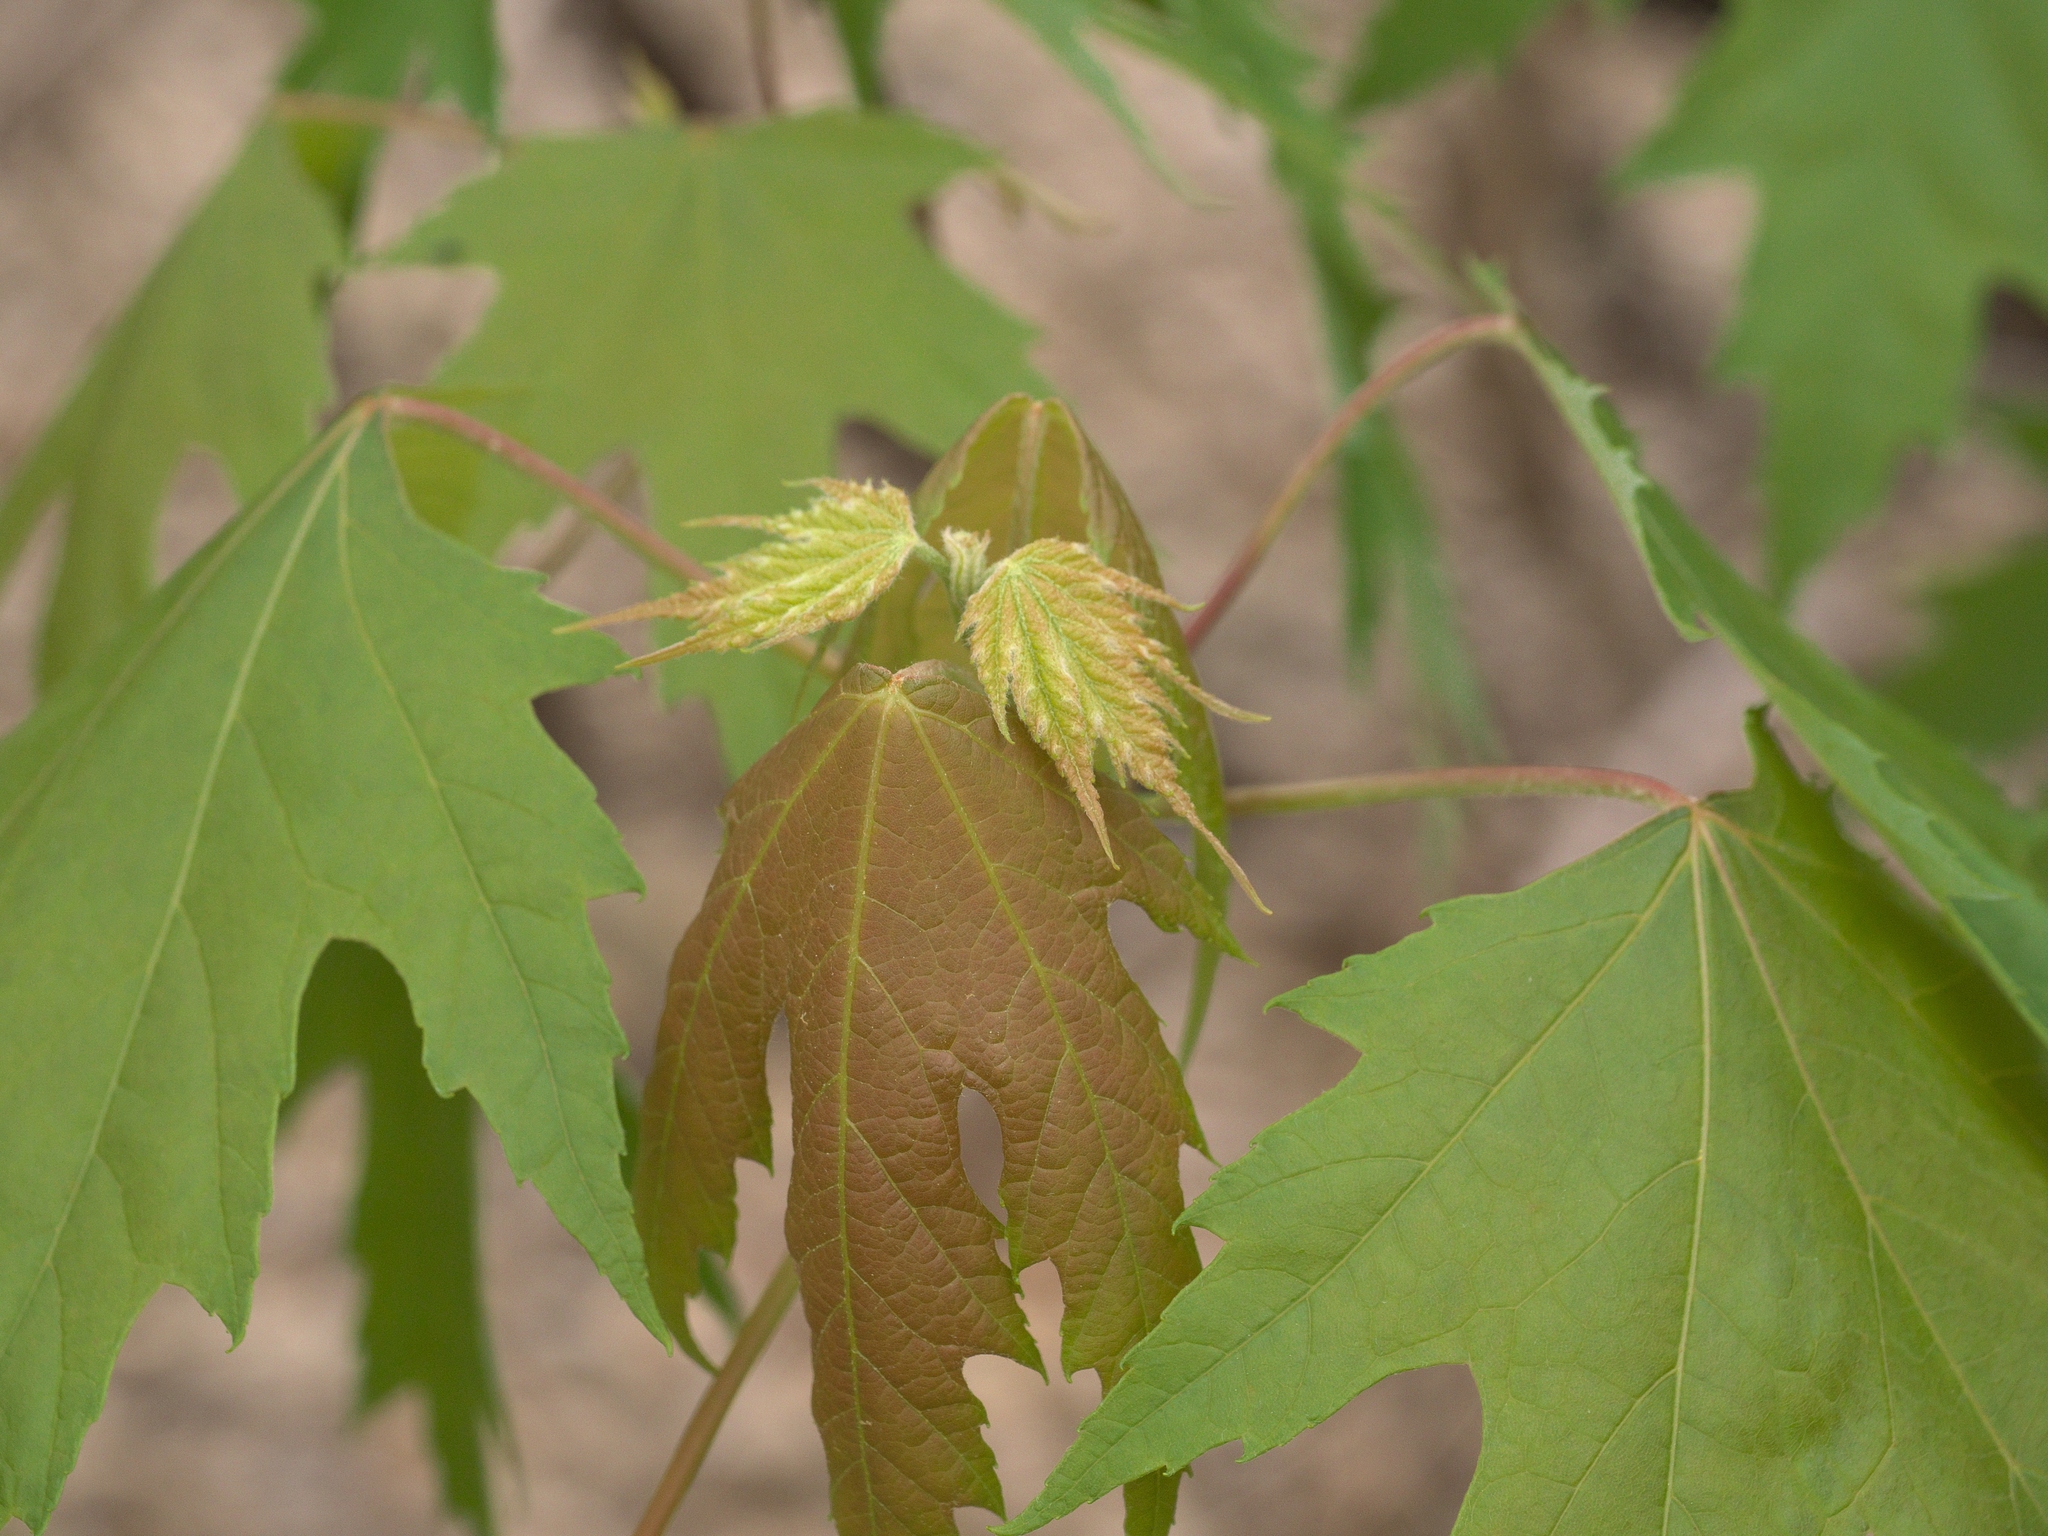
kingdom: Plantae
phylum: Tracheophyta
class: Magnoliopsida
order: Sapindales
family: Sapindaceae
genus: Acer
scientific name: Acer saccharinum
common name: Silver maple
